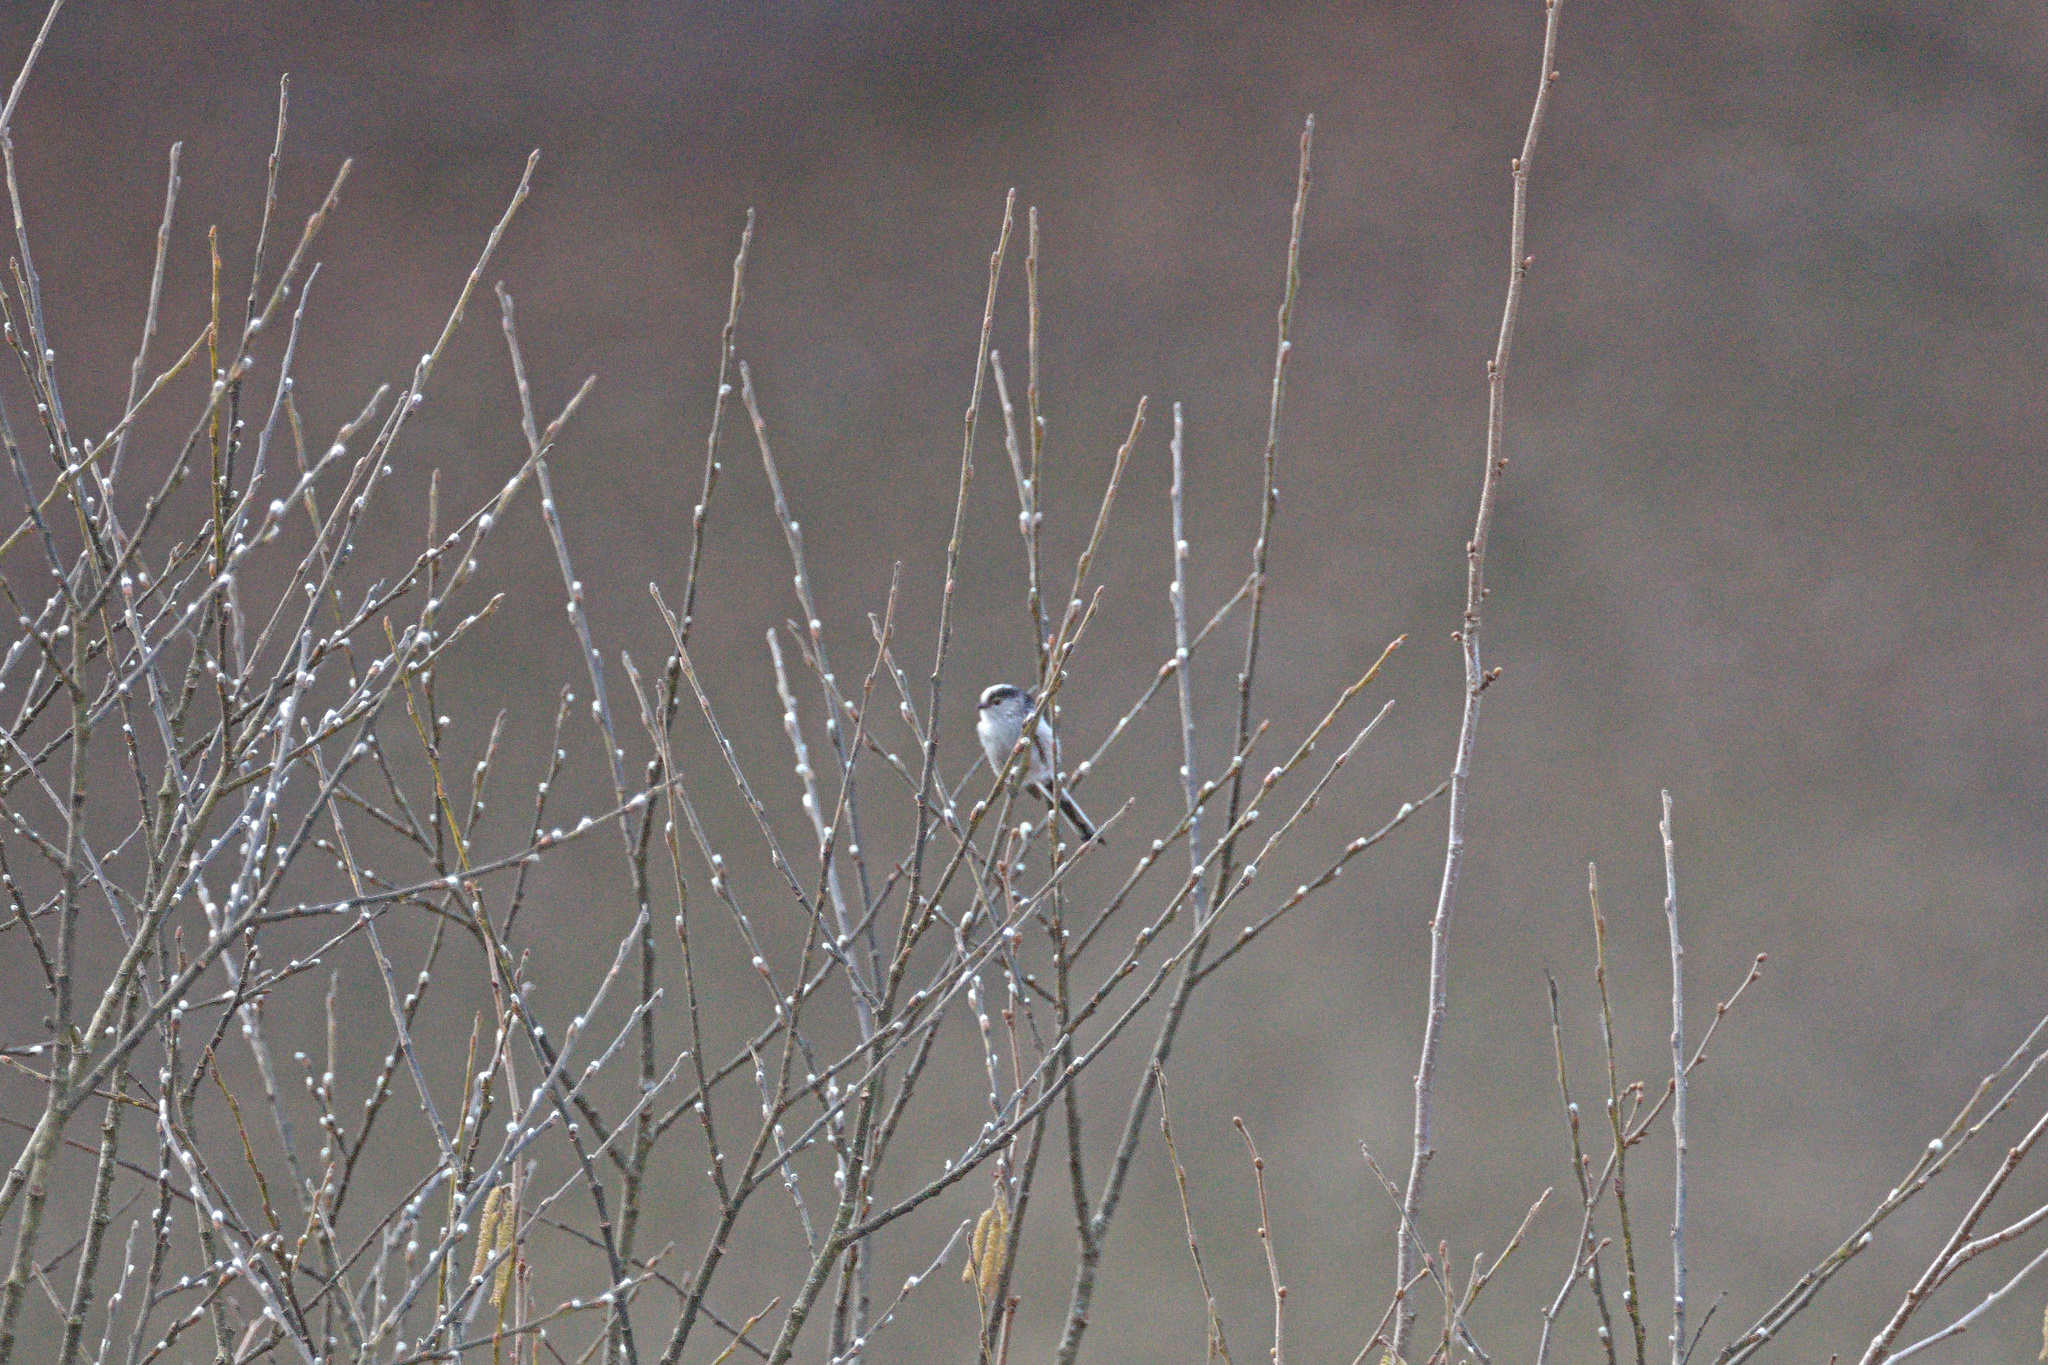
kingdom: Animalia
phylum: Chordata
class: Aves
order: Passeriformes
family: Aegithalidae
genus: Aegithalos
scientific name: Aegithalos caudatus
